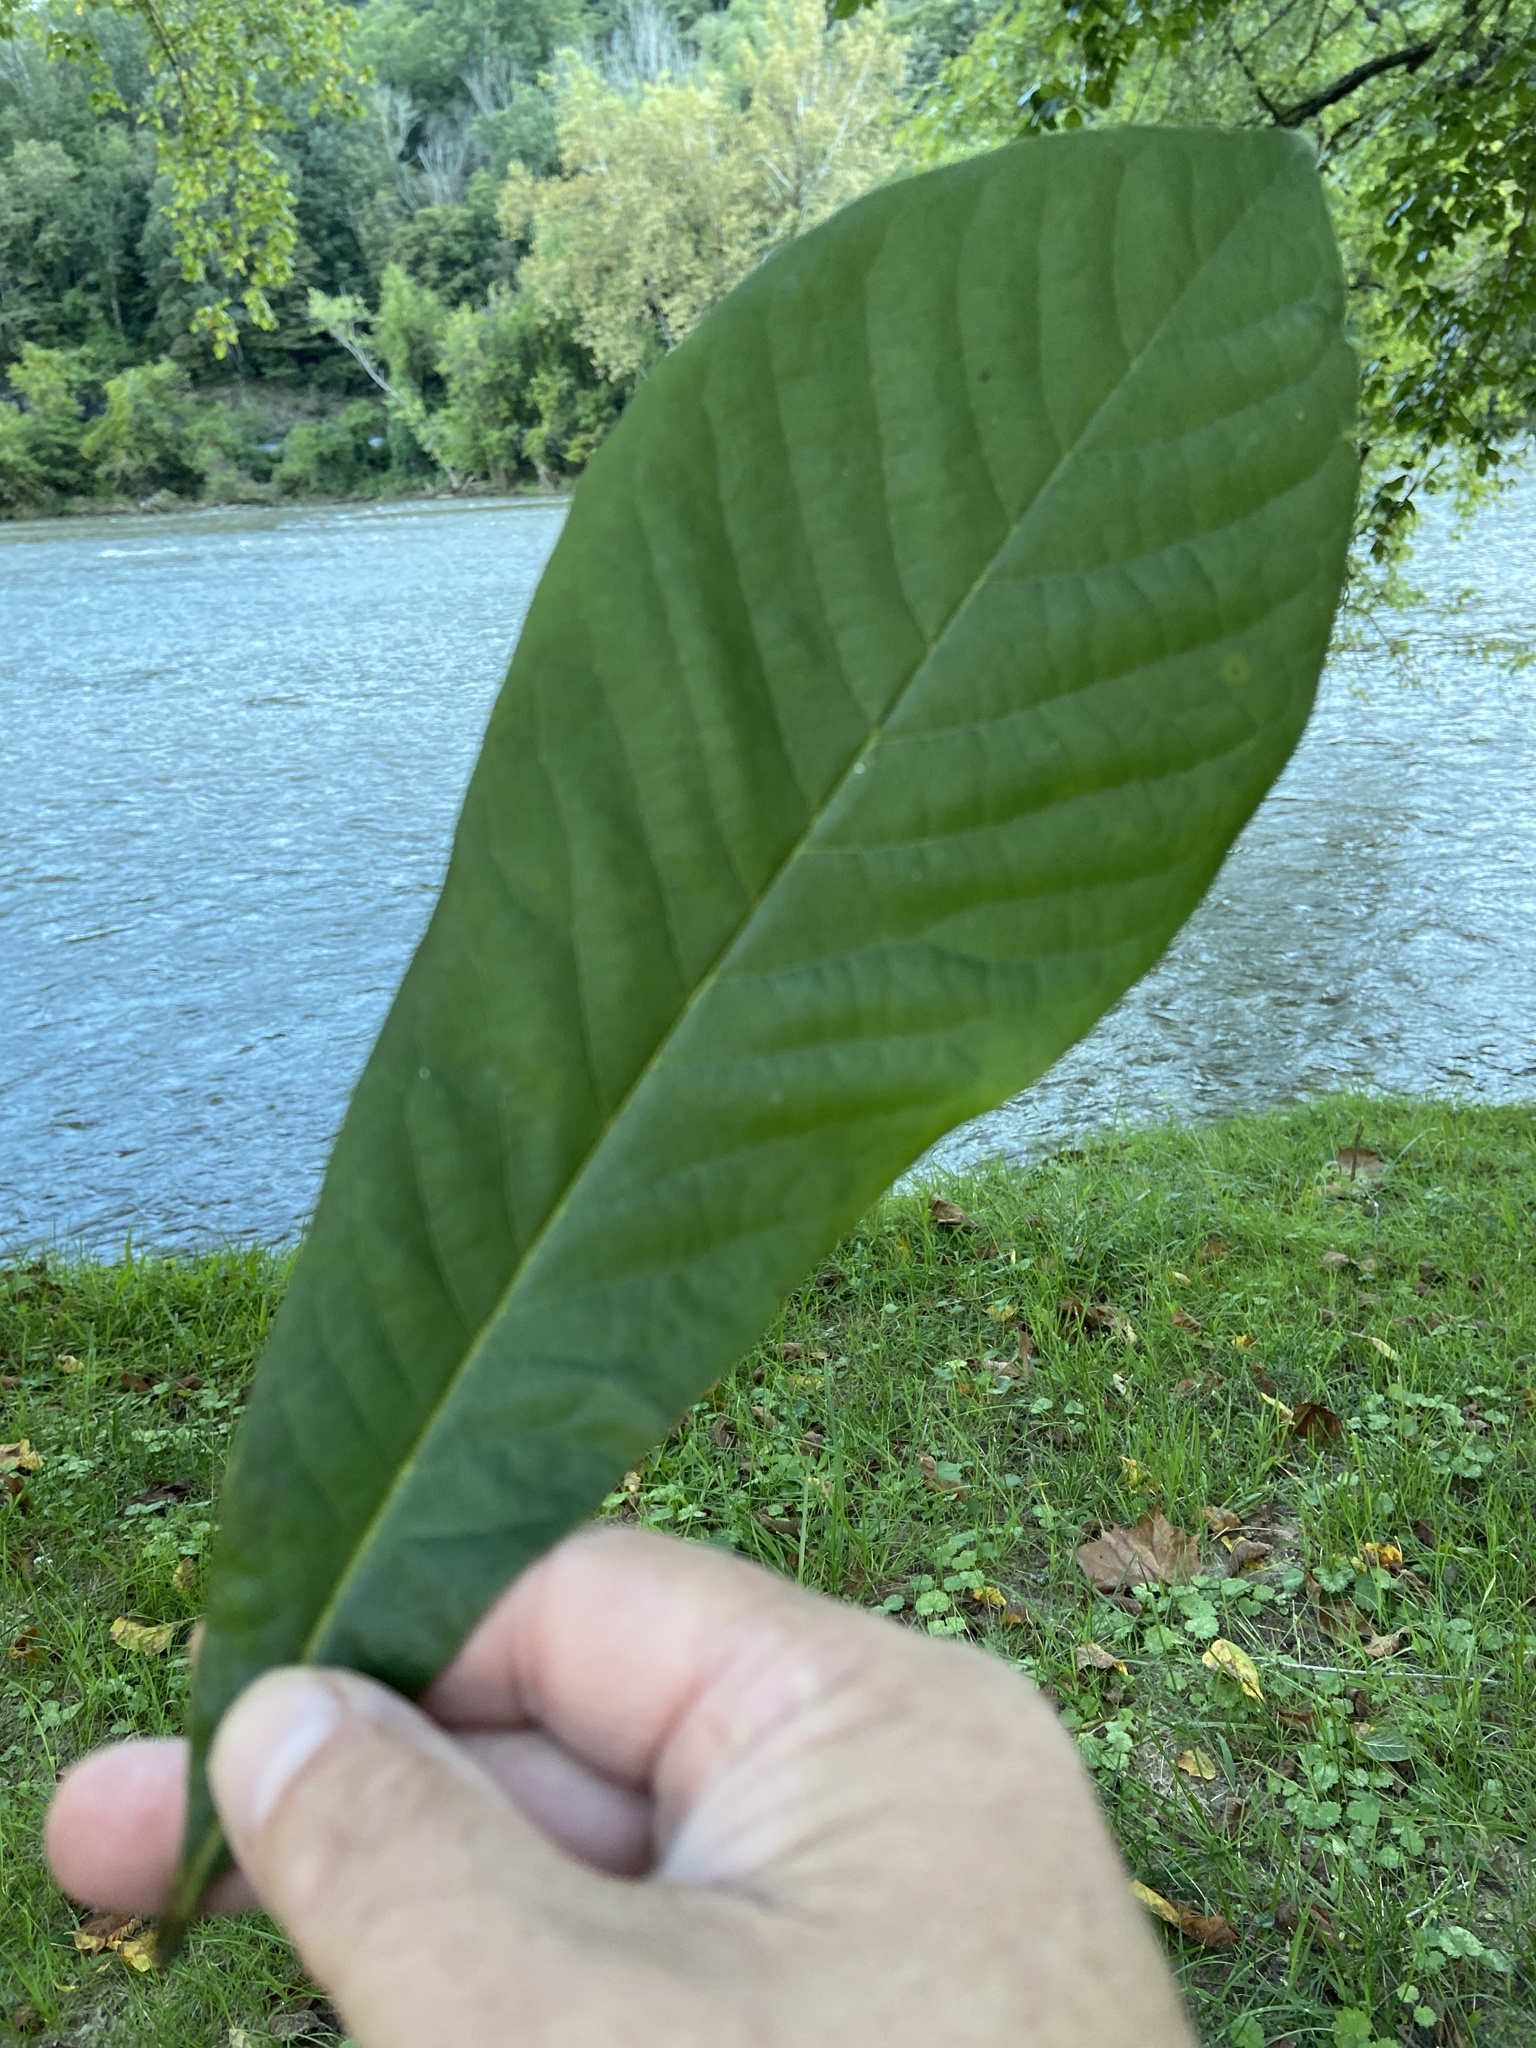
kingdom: Plantae
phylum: Tracheophyta
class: Magnoliopsida
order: Magnoliales
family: Annonaceae
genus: Asimina
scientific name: Asimina triloba
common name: Dog-banana
